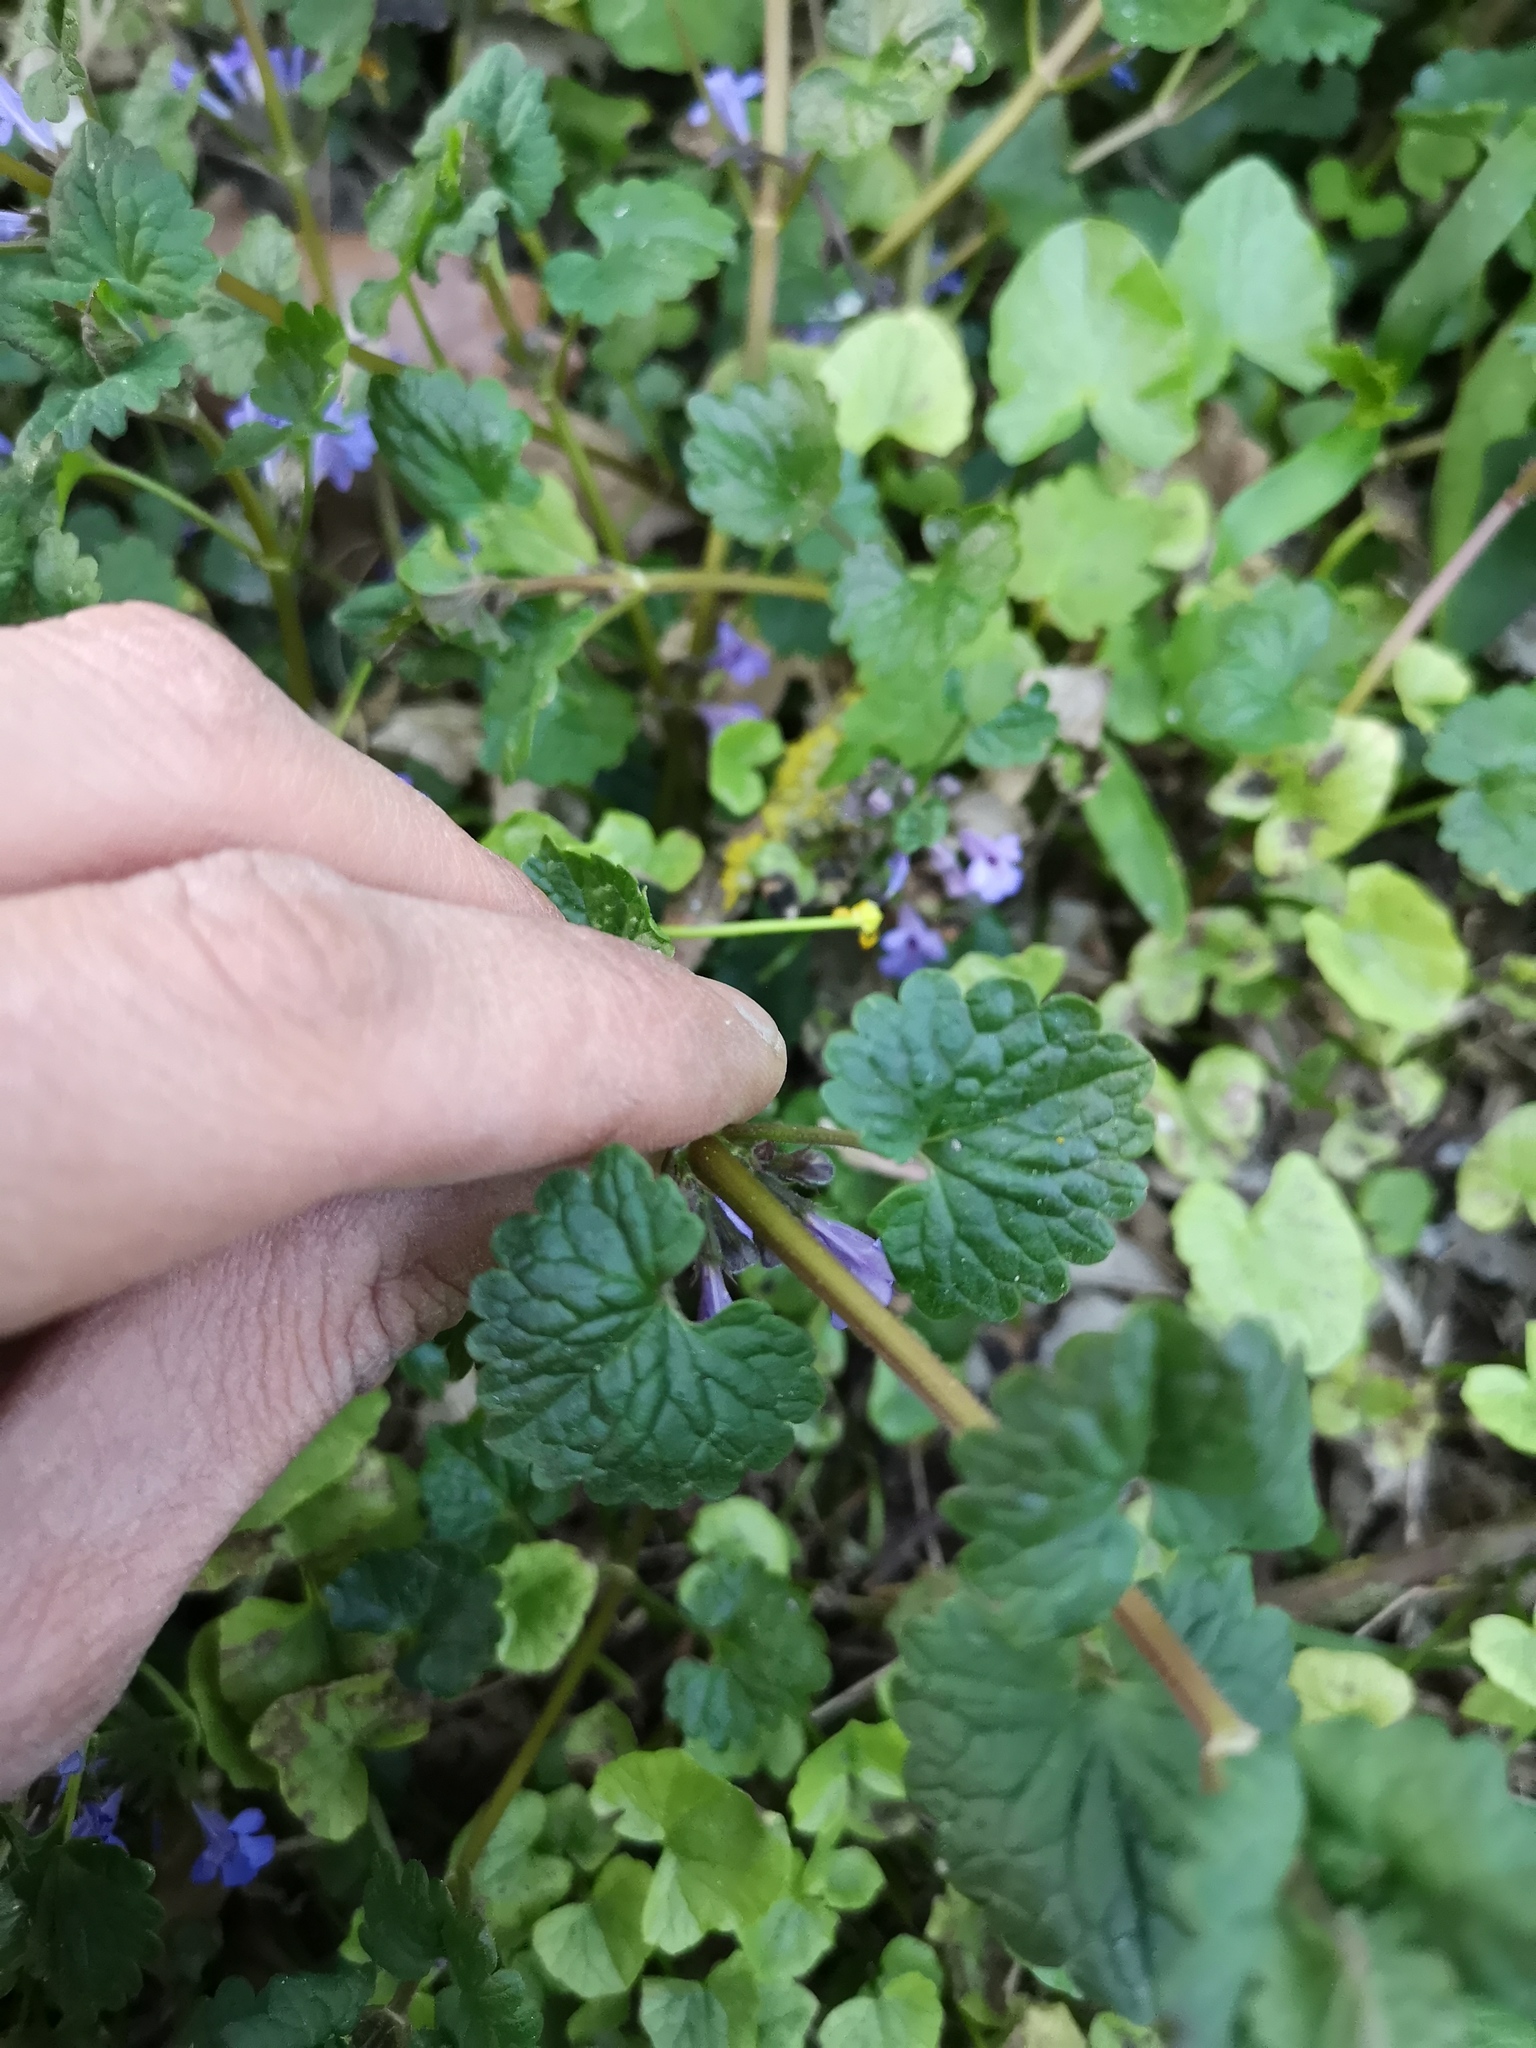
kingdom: Plantae
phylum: Tracheophyta
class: Magnoliopsida
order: Lamiales
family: Lamiaceae
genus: Glechoma
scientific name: Glechoma hederacea
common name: Ground ivy
